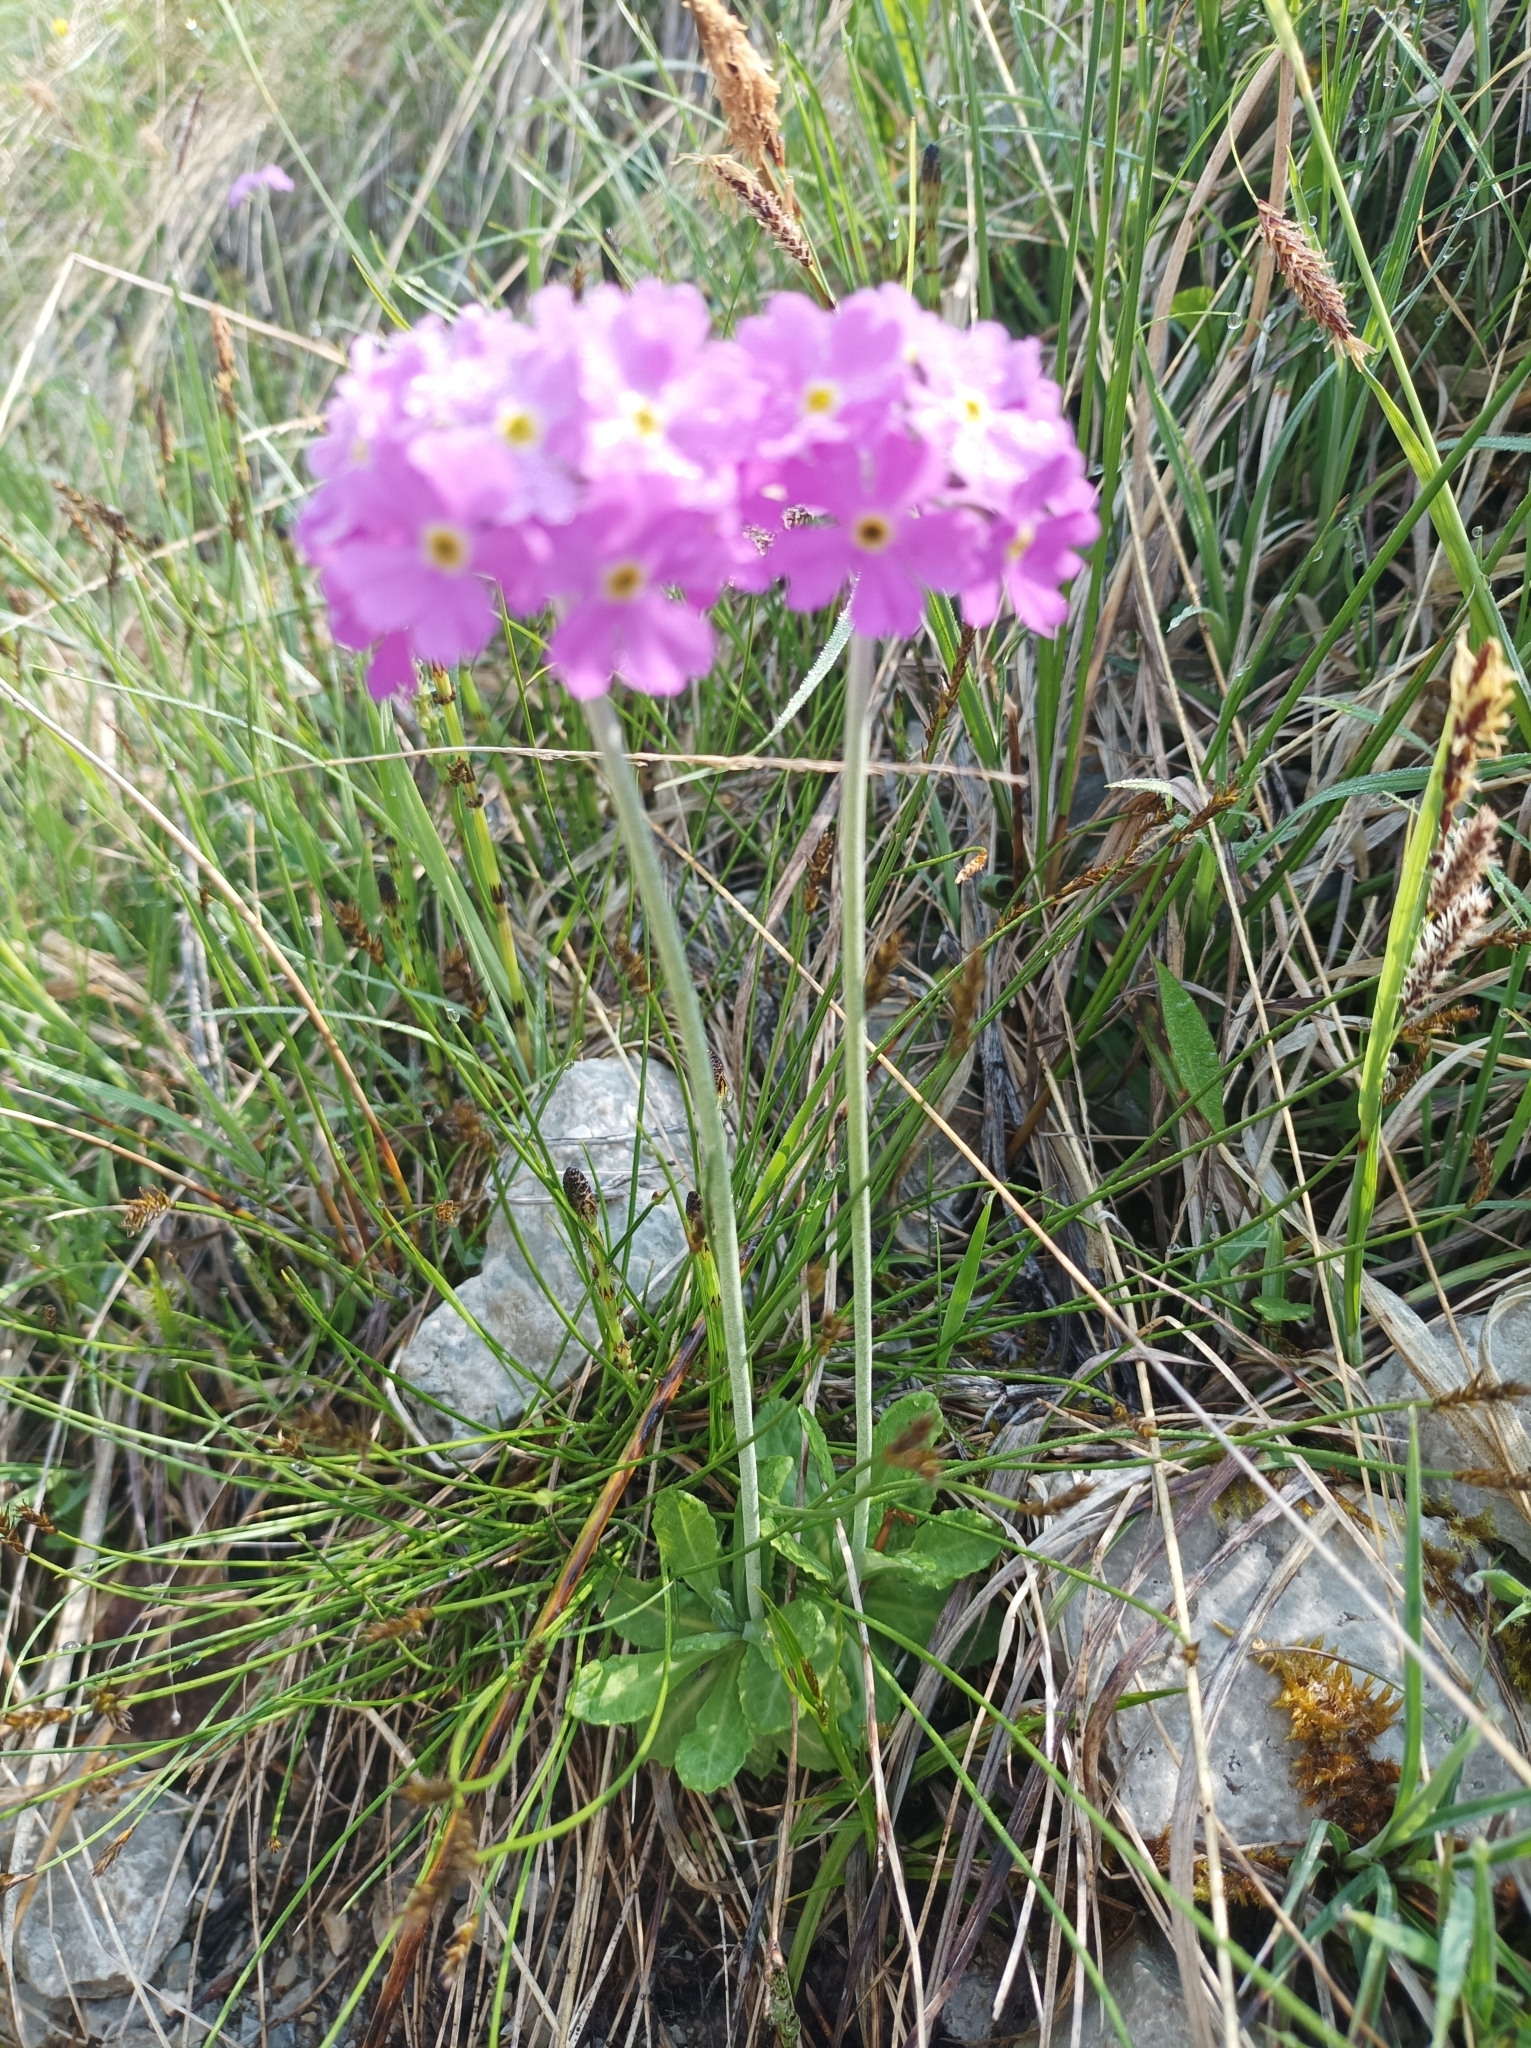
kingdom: Plantae
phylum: Tracheophyta
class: Magnoliopsida
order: Ericales
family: Primulaceae
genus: Primula
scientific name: Primula farinosa
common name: Bird's-eye primrose
